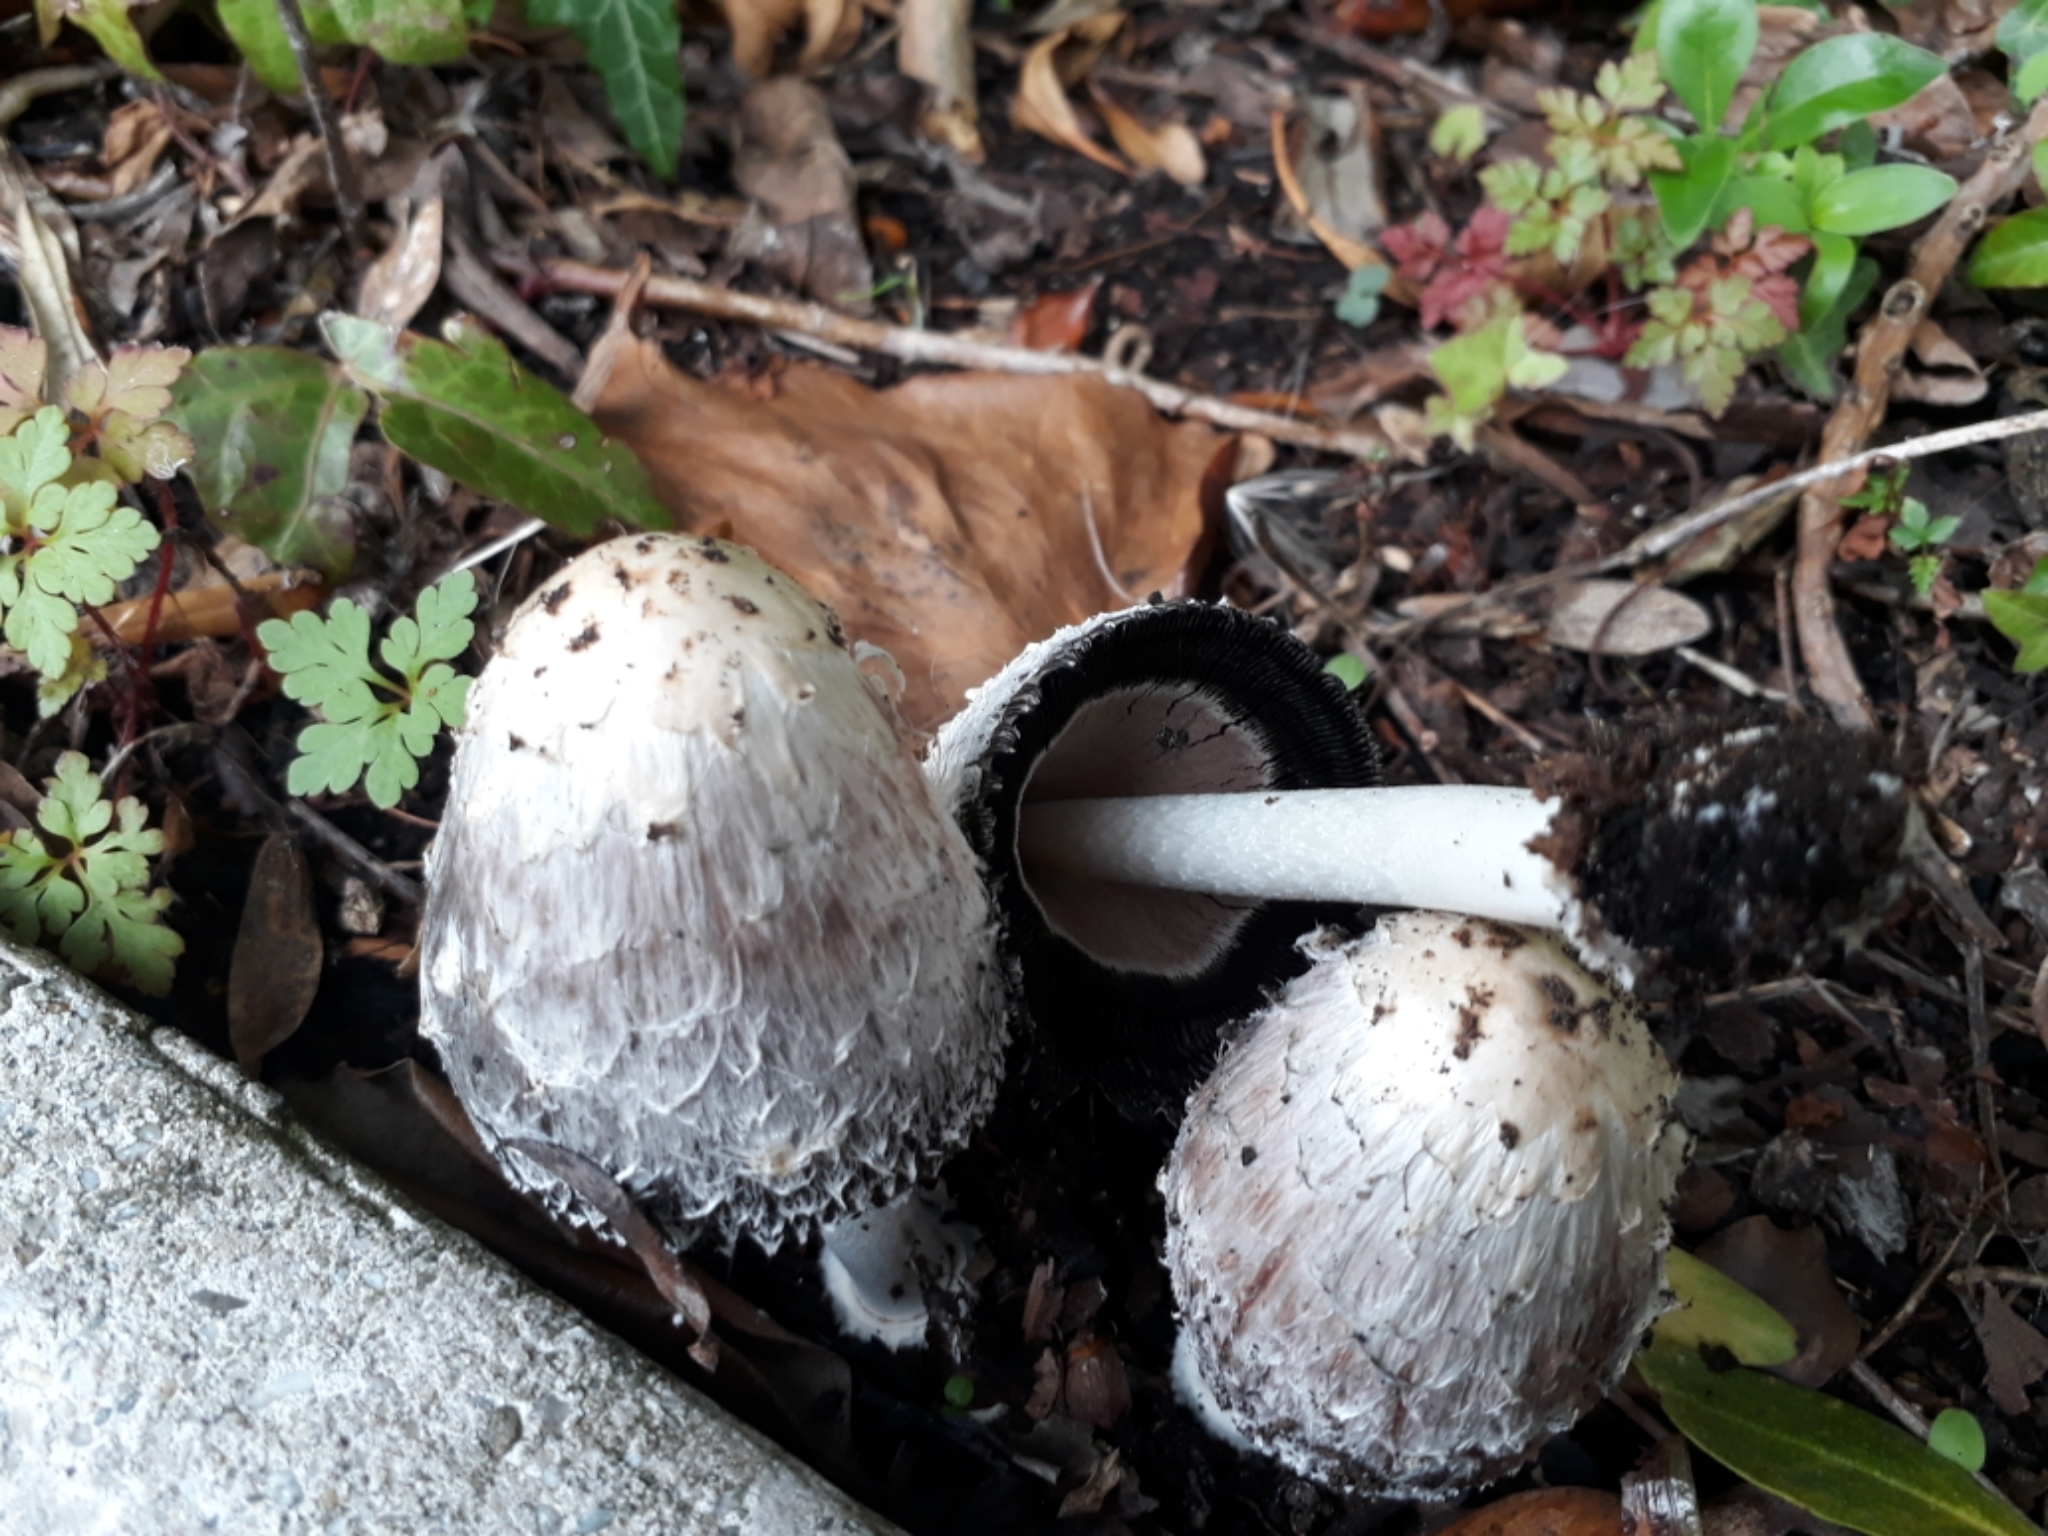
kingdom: Fungi
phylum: Basidiomycota
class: Agaricomycetes
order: Agaricales
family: Agaricaceae
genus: Coprinus
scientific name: Coprinus comatus
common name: Lawyer's wig
